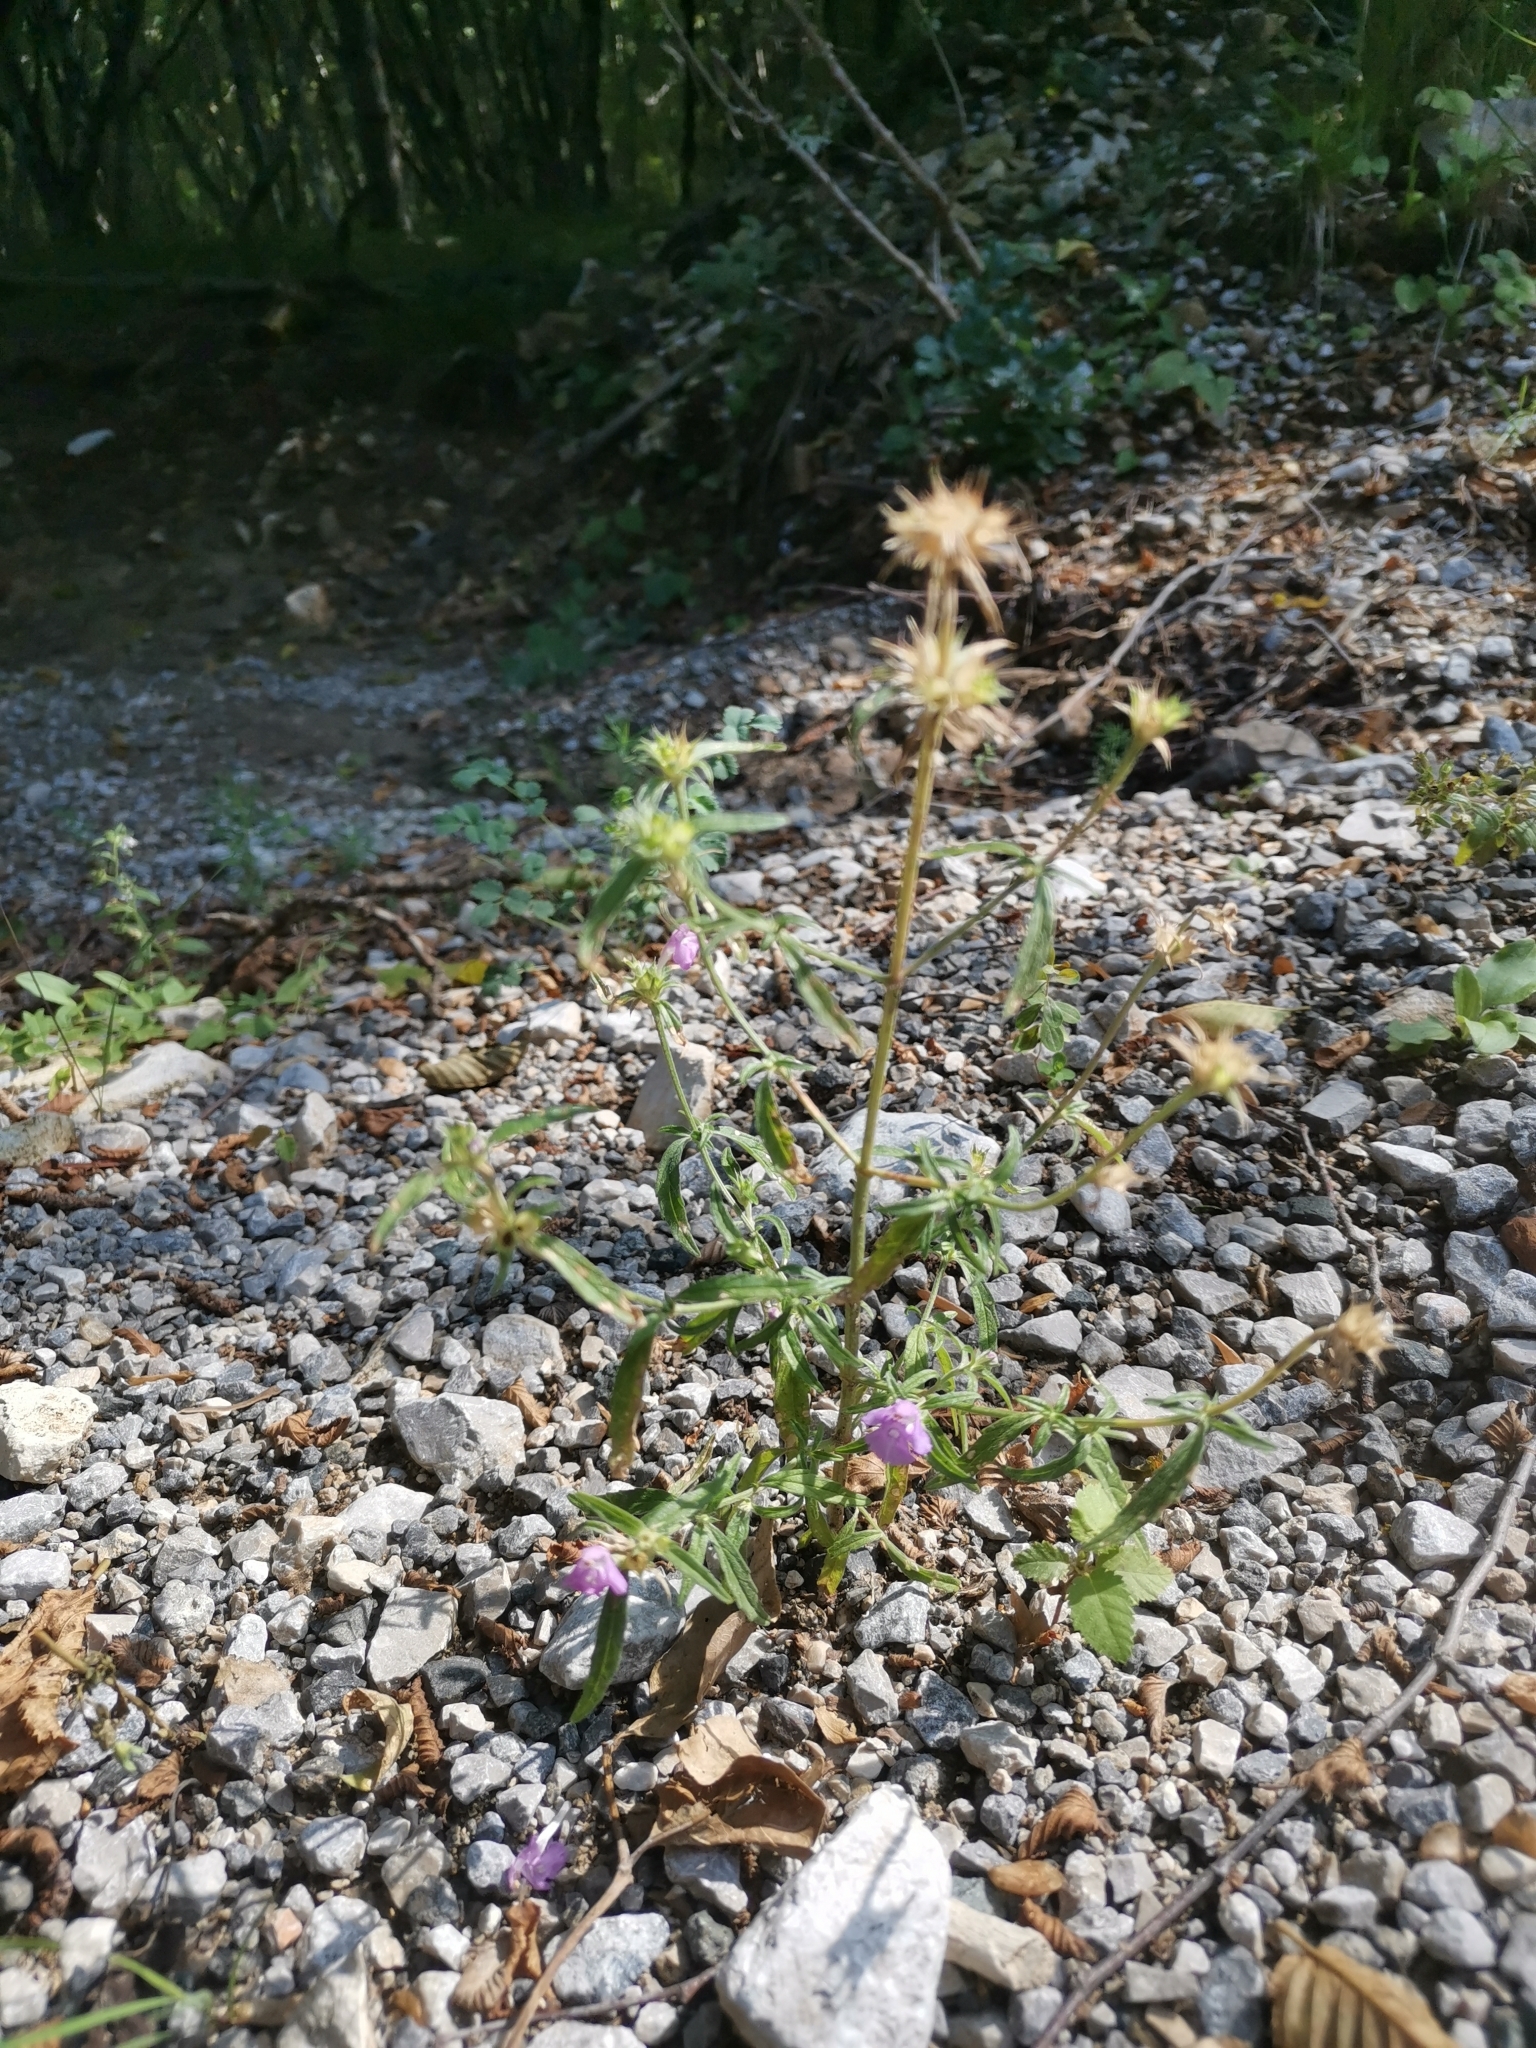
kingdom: Plantae
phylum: Tracheophyta
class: Magnoliopsida
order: Lamiales
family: Lamiaceae
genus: Galeopsis
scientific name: Galeopsis angustifolia
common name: Red hemp-nettle
